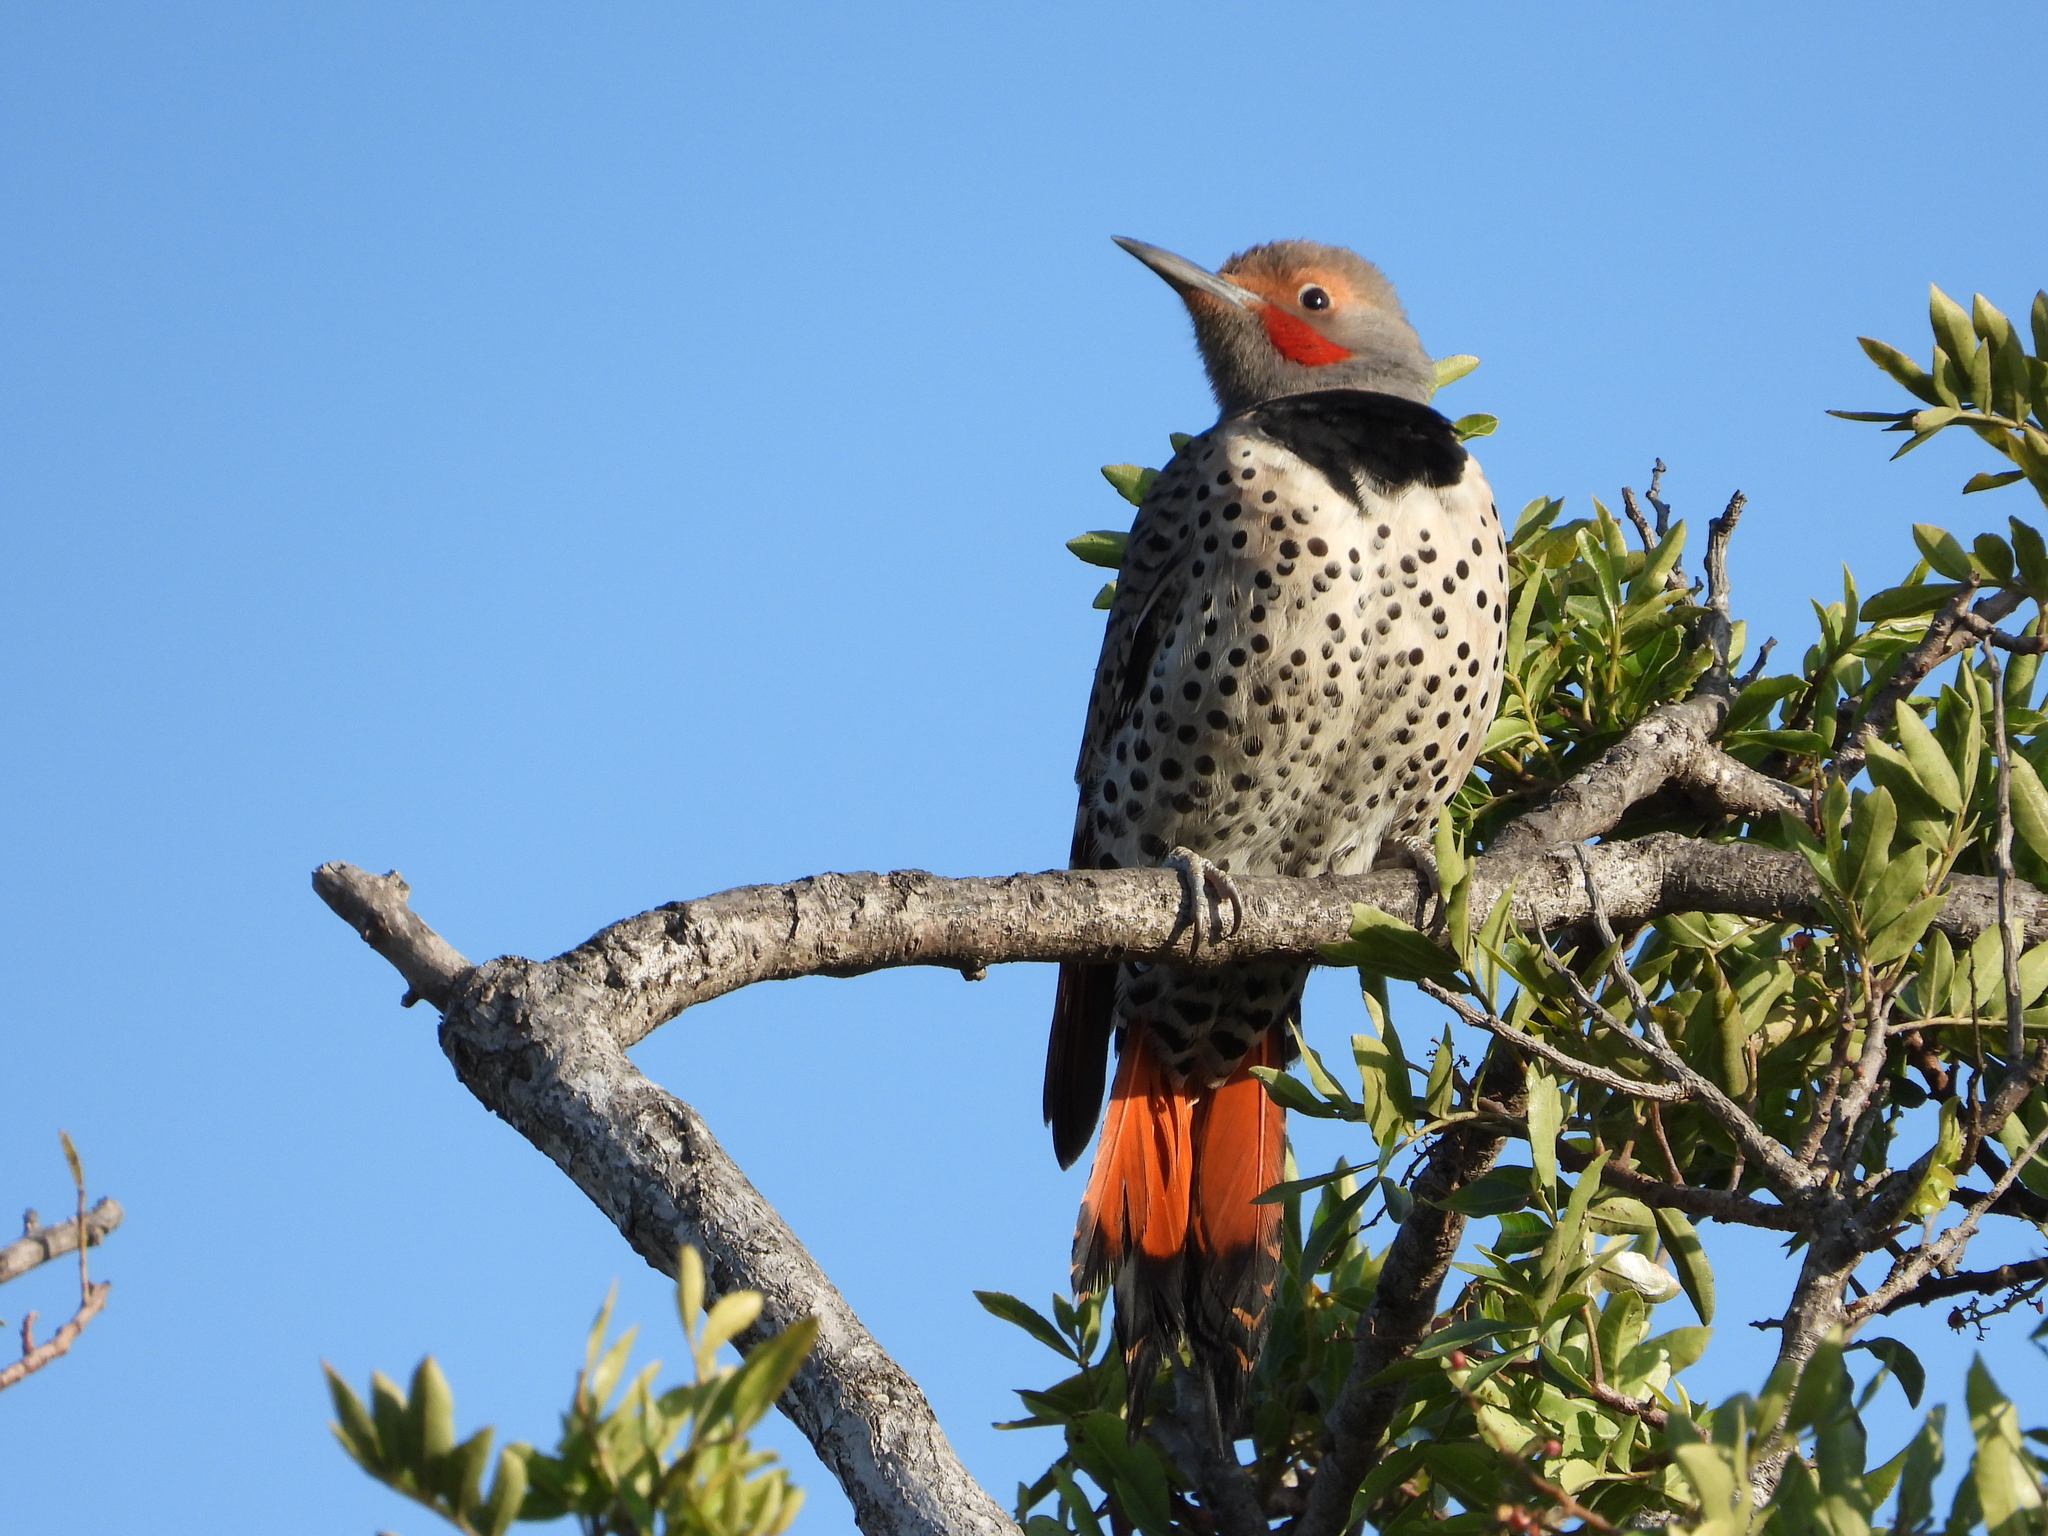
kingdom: Animalia
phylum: Chordata
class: Aves
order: Piciformes
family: Picidae
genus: Colaptes
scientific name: Colaptes auratus
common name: Northern flicker
